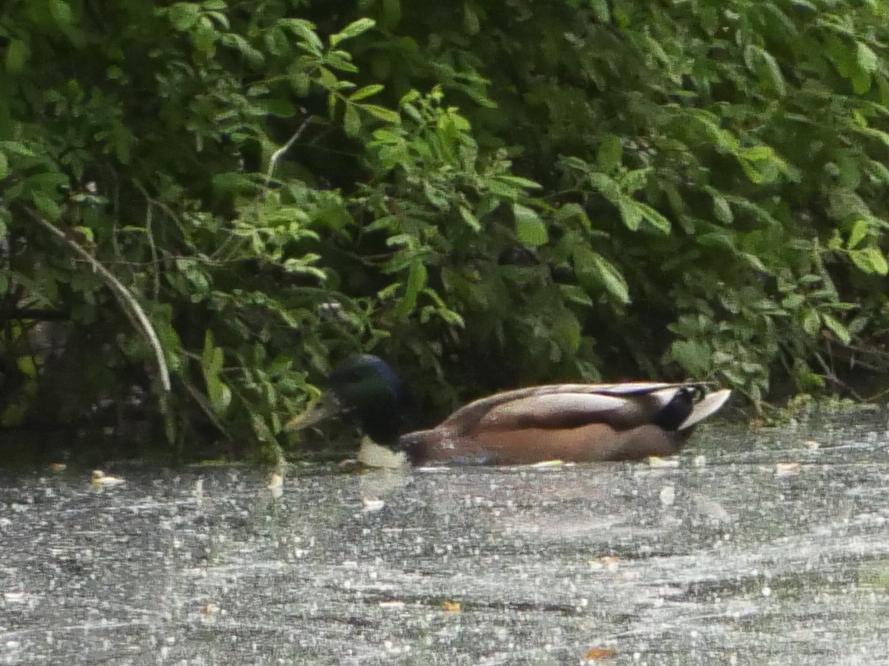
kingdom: Animalia
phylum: Chordata
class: Aves
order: Anseriformes
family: Anatidae
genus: Anas
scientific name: Anas platyrhynchos
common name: Mallard
